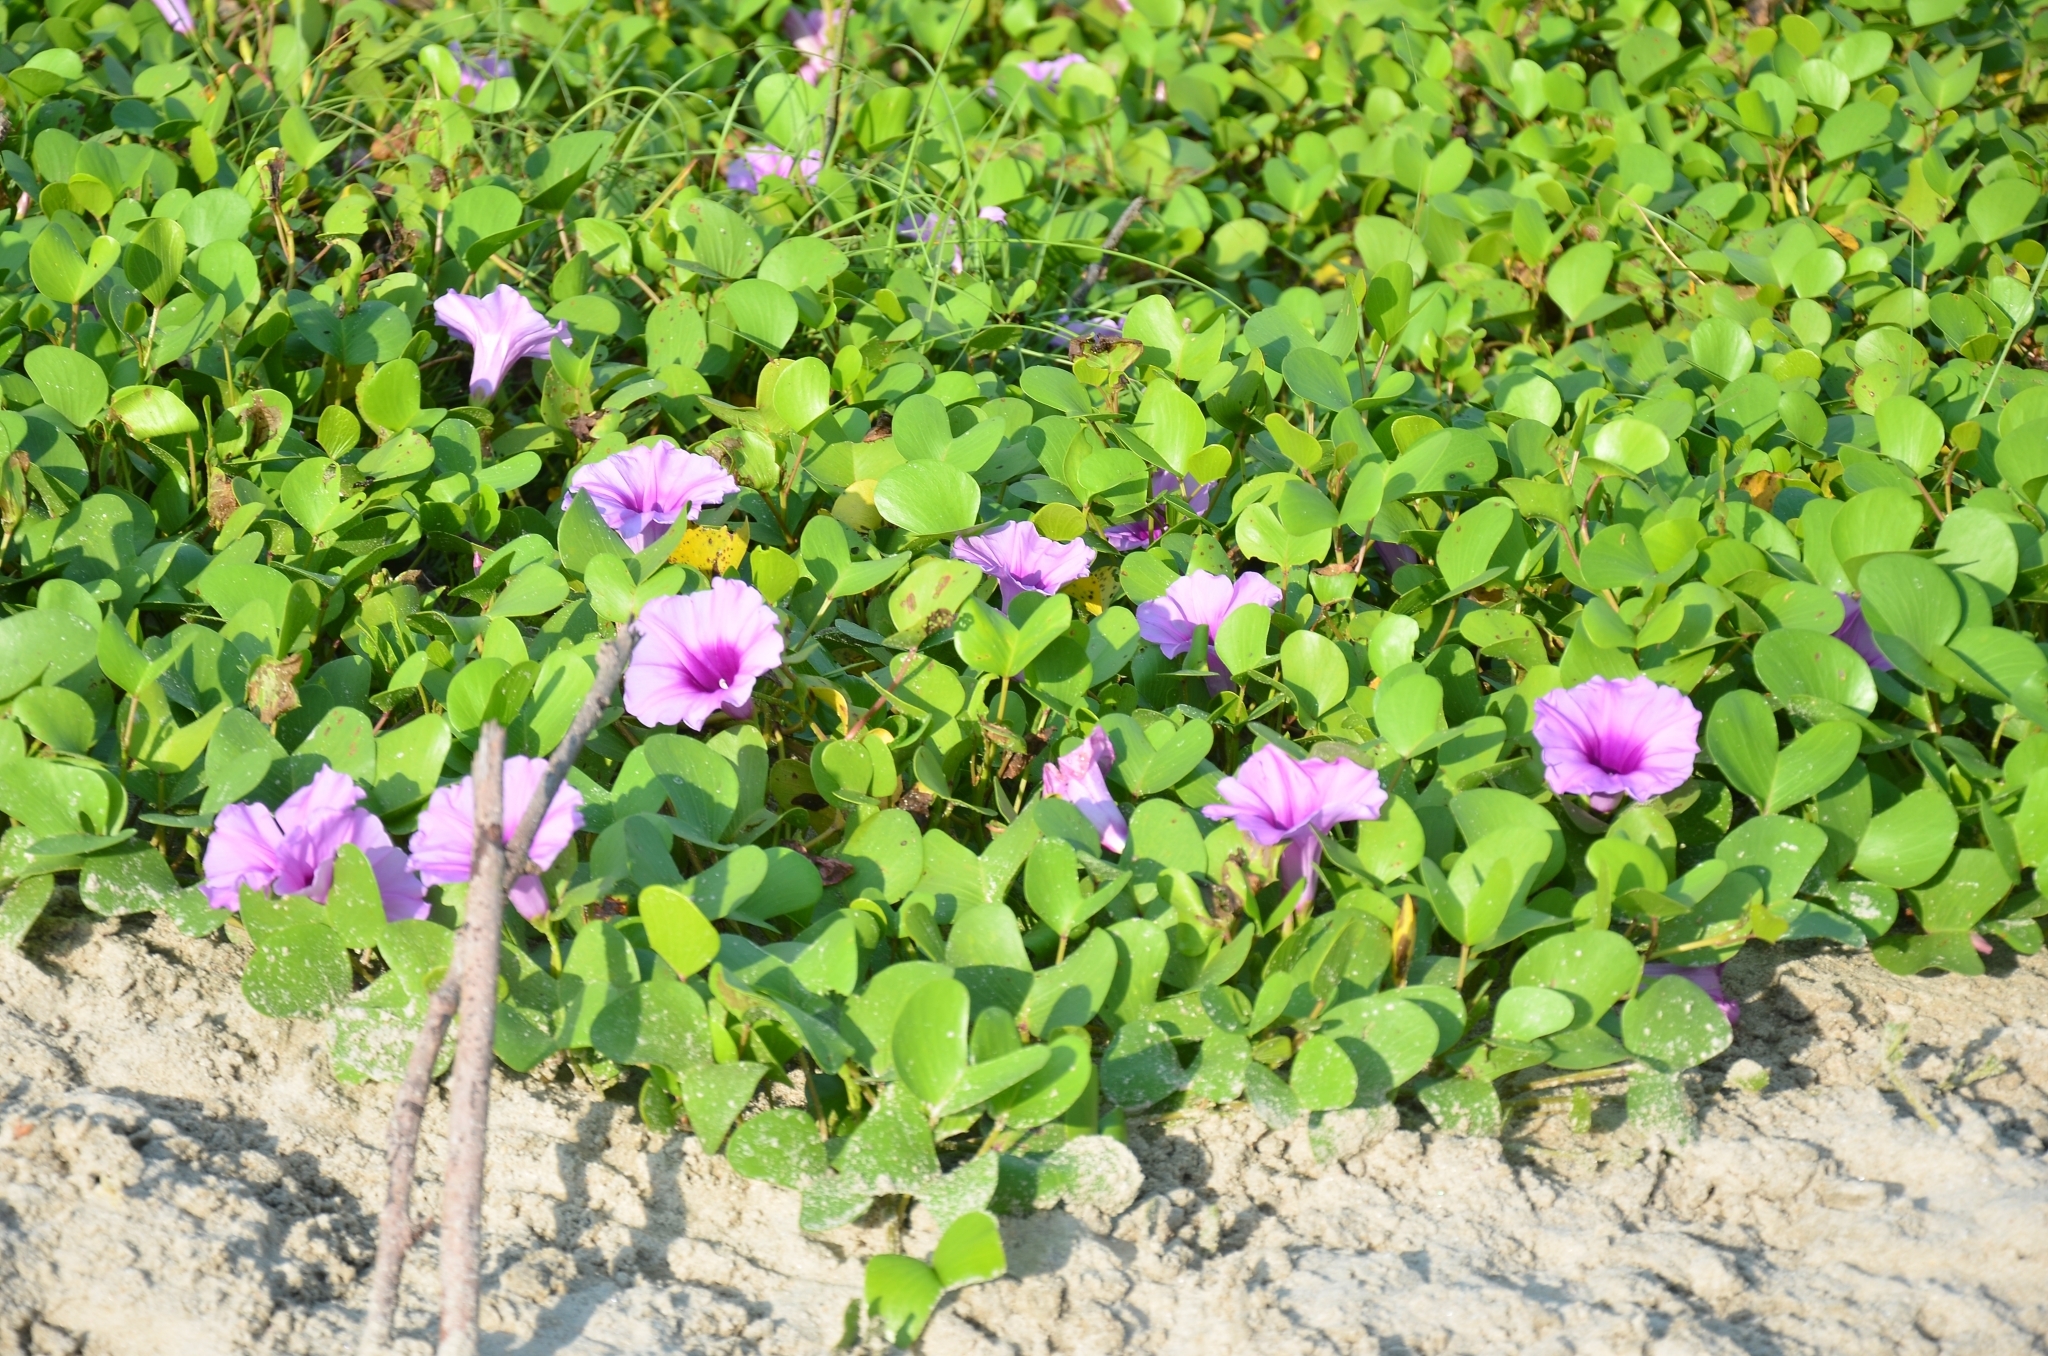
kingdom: Plantae
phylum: Tracheophyta
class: Magnoliopsida
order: Solanales
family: Convolvulaceae
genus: Ipomoea
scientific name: Ipomoea pes-caprae
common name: Beach morning glory
